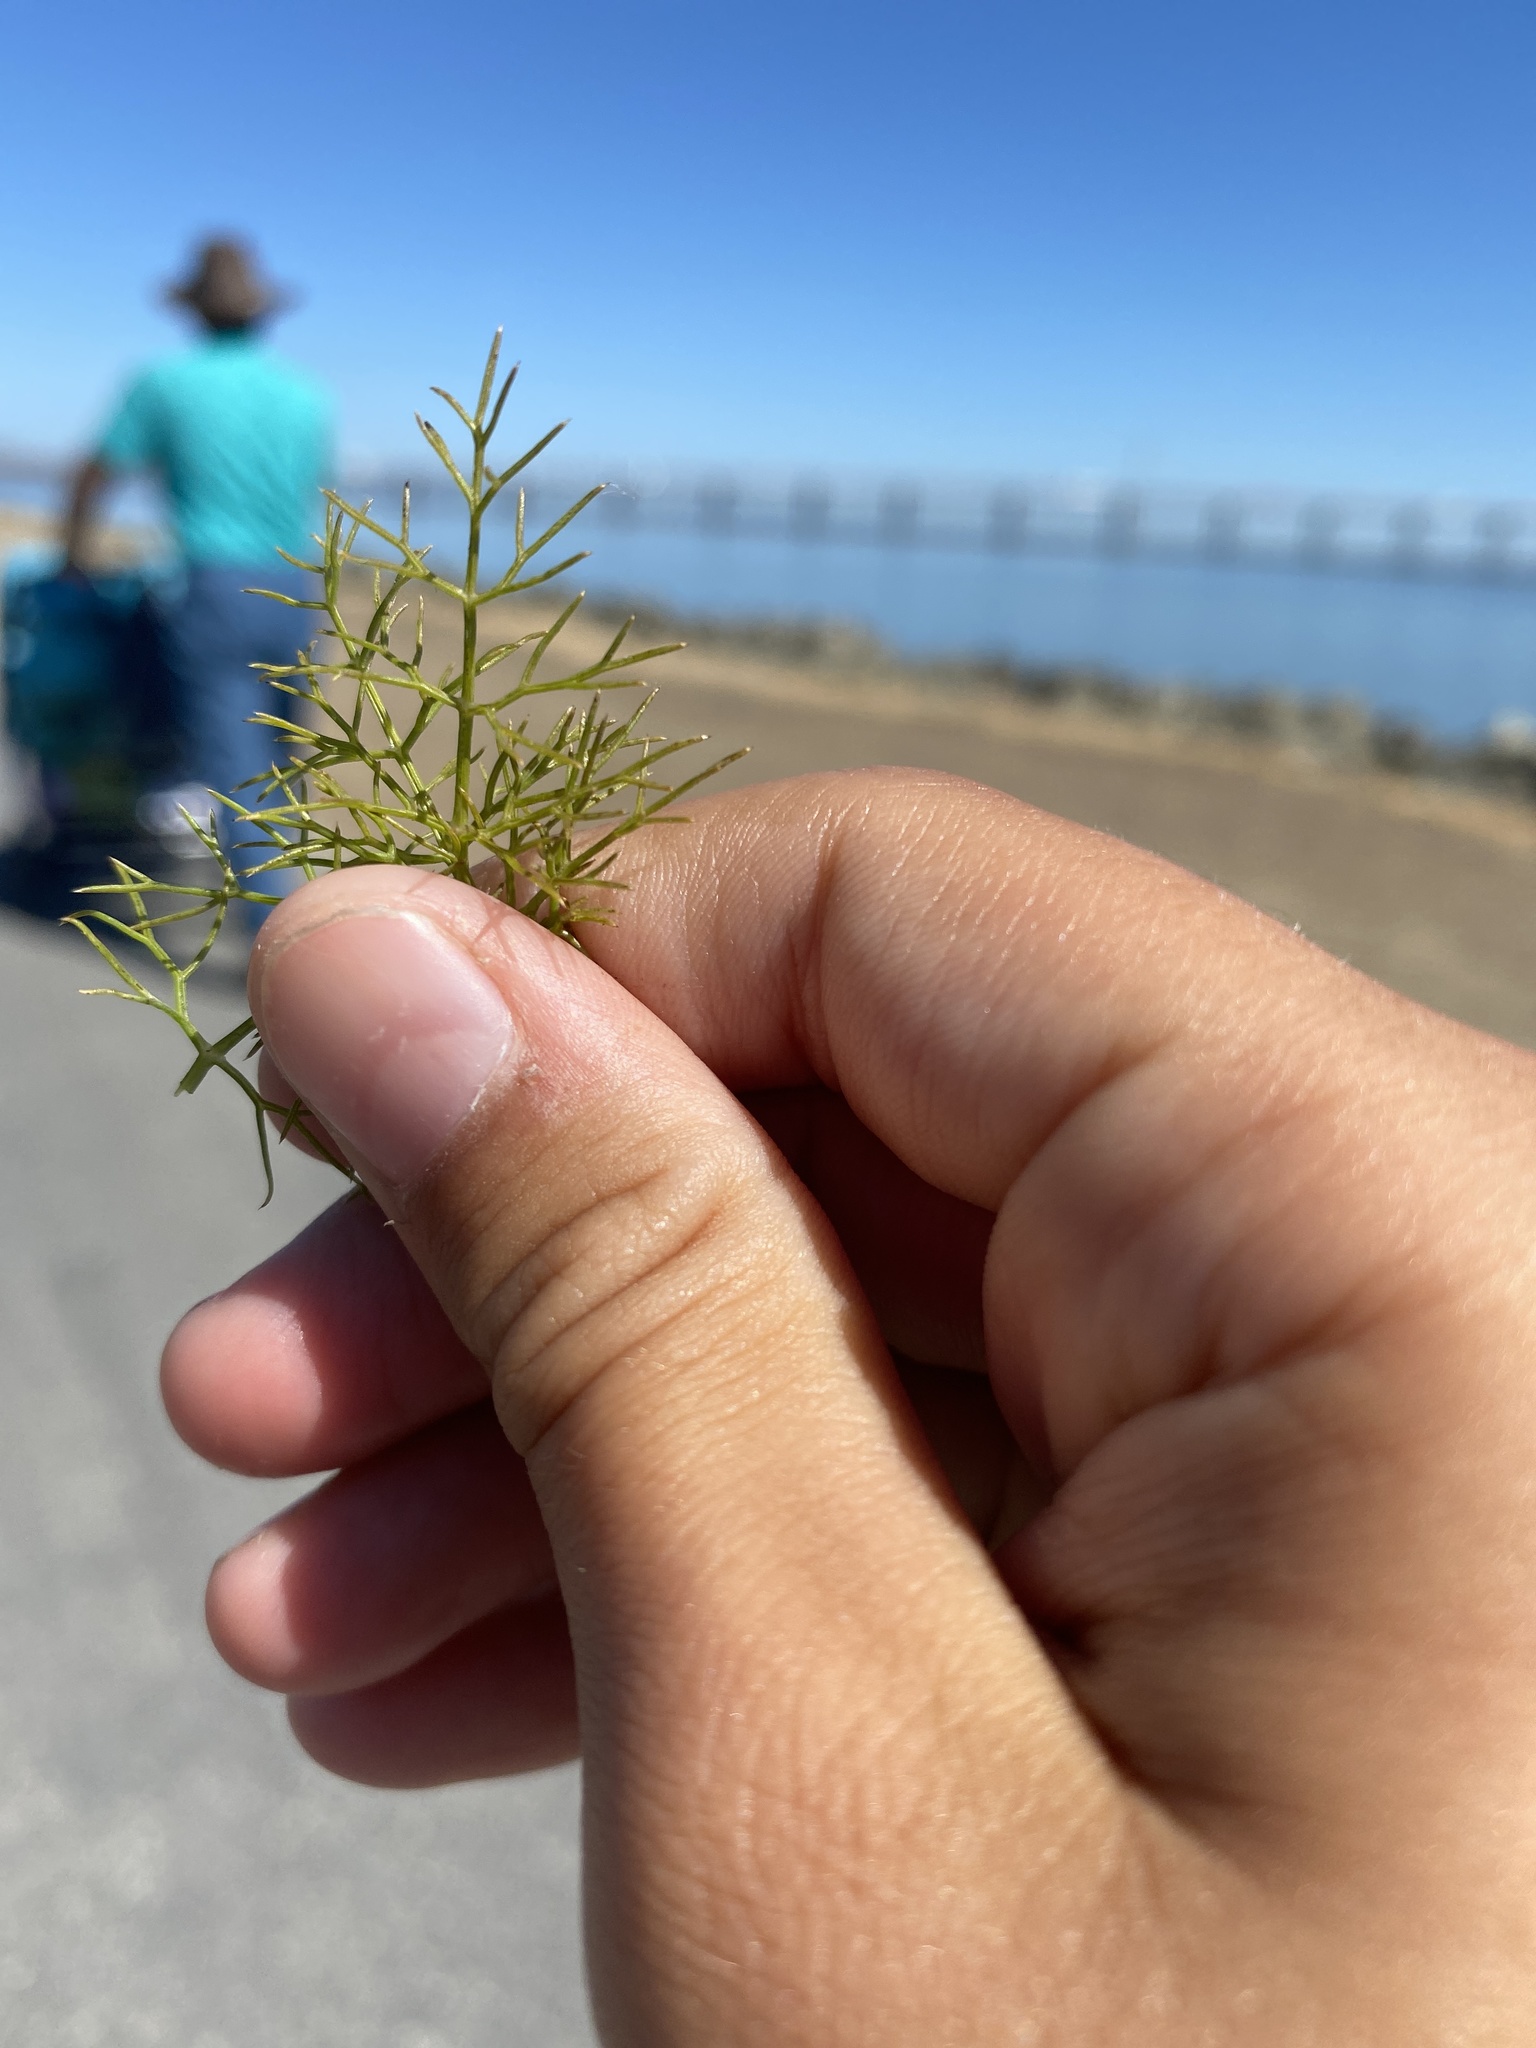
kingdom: Plantae
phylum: Tracheophyta
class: Magnoliopsida
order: Apiales
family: Apiaceae
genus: Foeniculum
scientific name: Foeniculum vulgare
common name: Fennel
